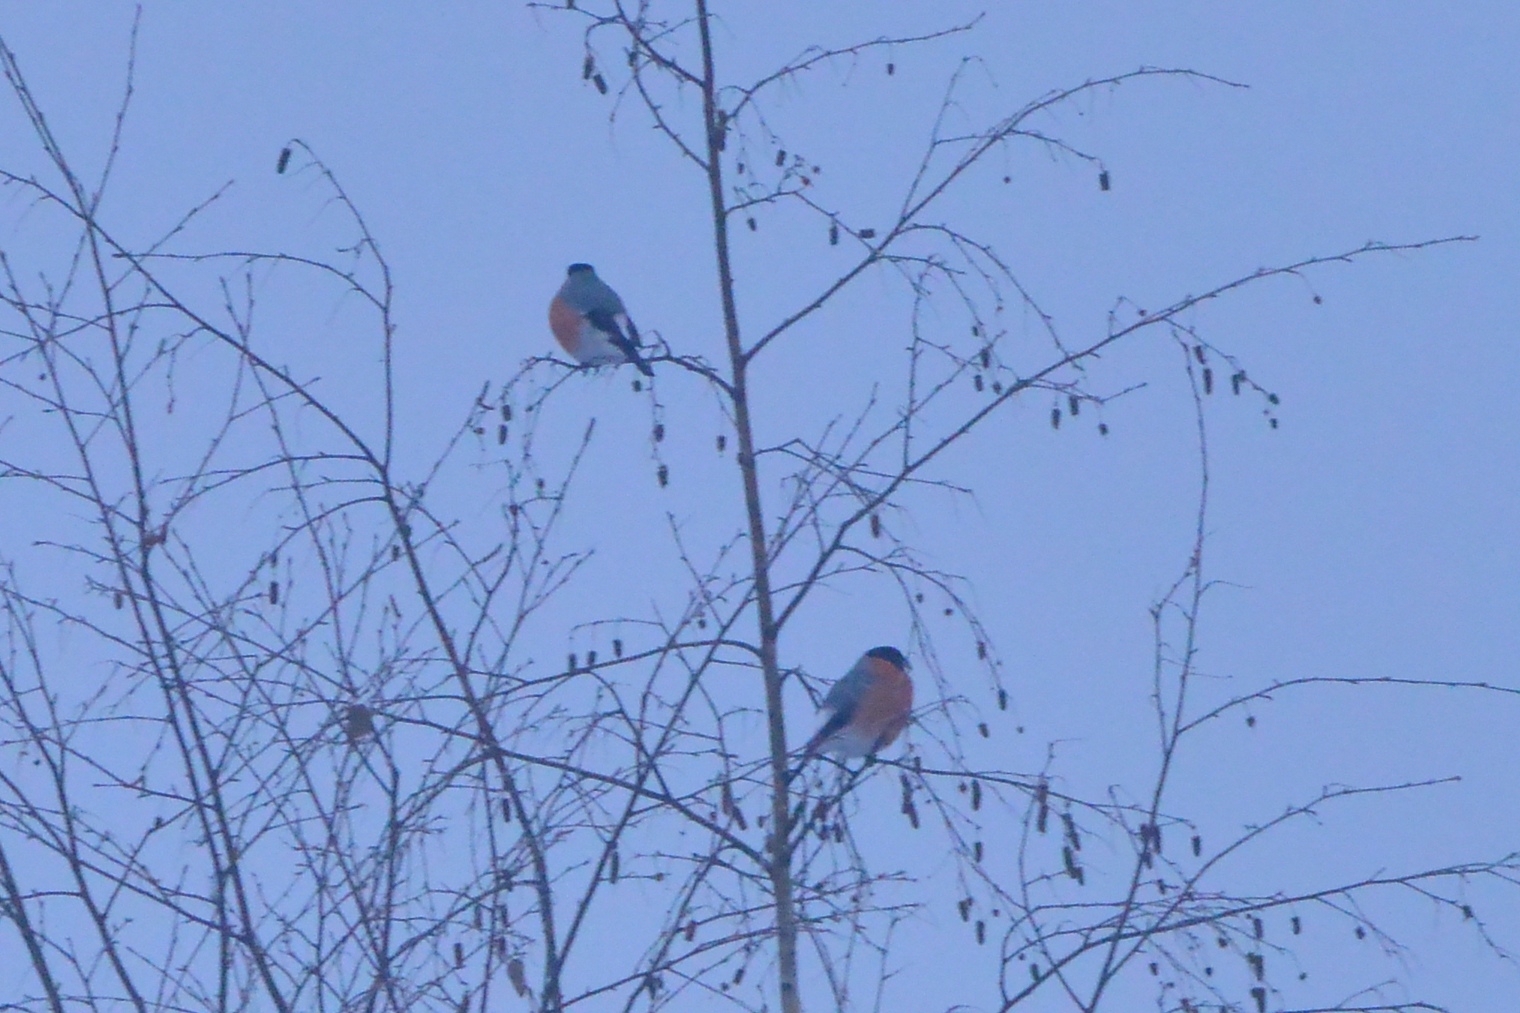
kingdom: Animalia
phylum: Chordata
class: Aves
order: Passeriformes
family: Fringillidae
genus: Pyrrhula
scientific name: Pyrrhula pyrrhula
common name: Eurasian bullfinch
